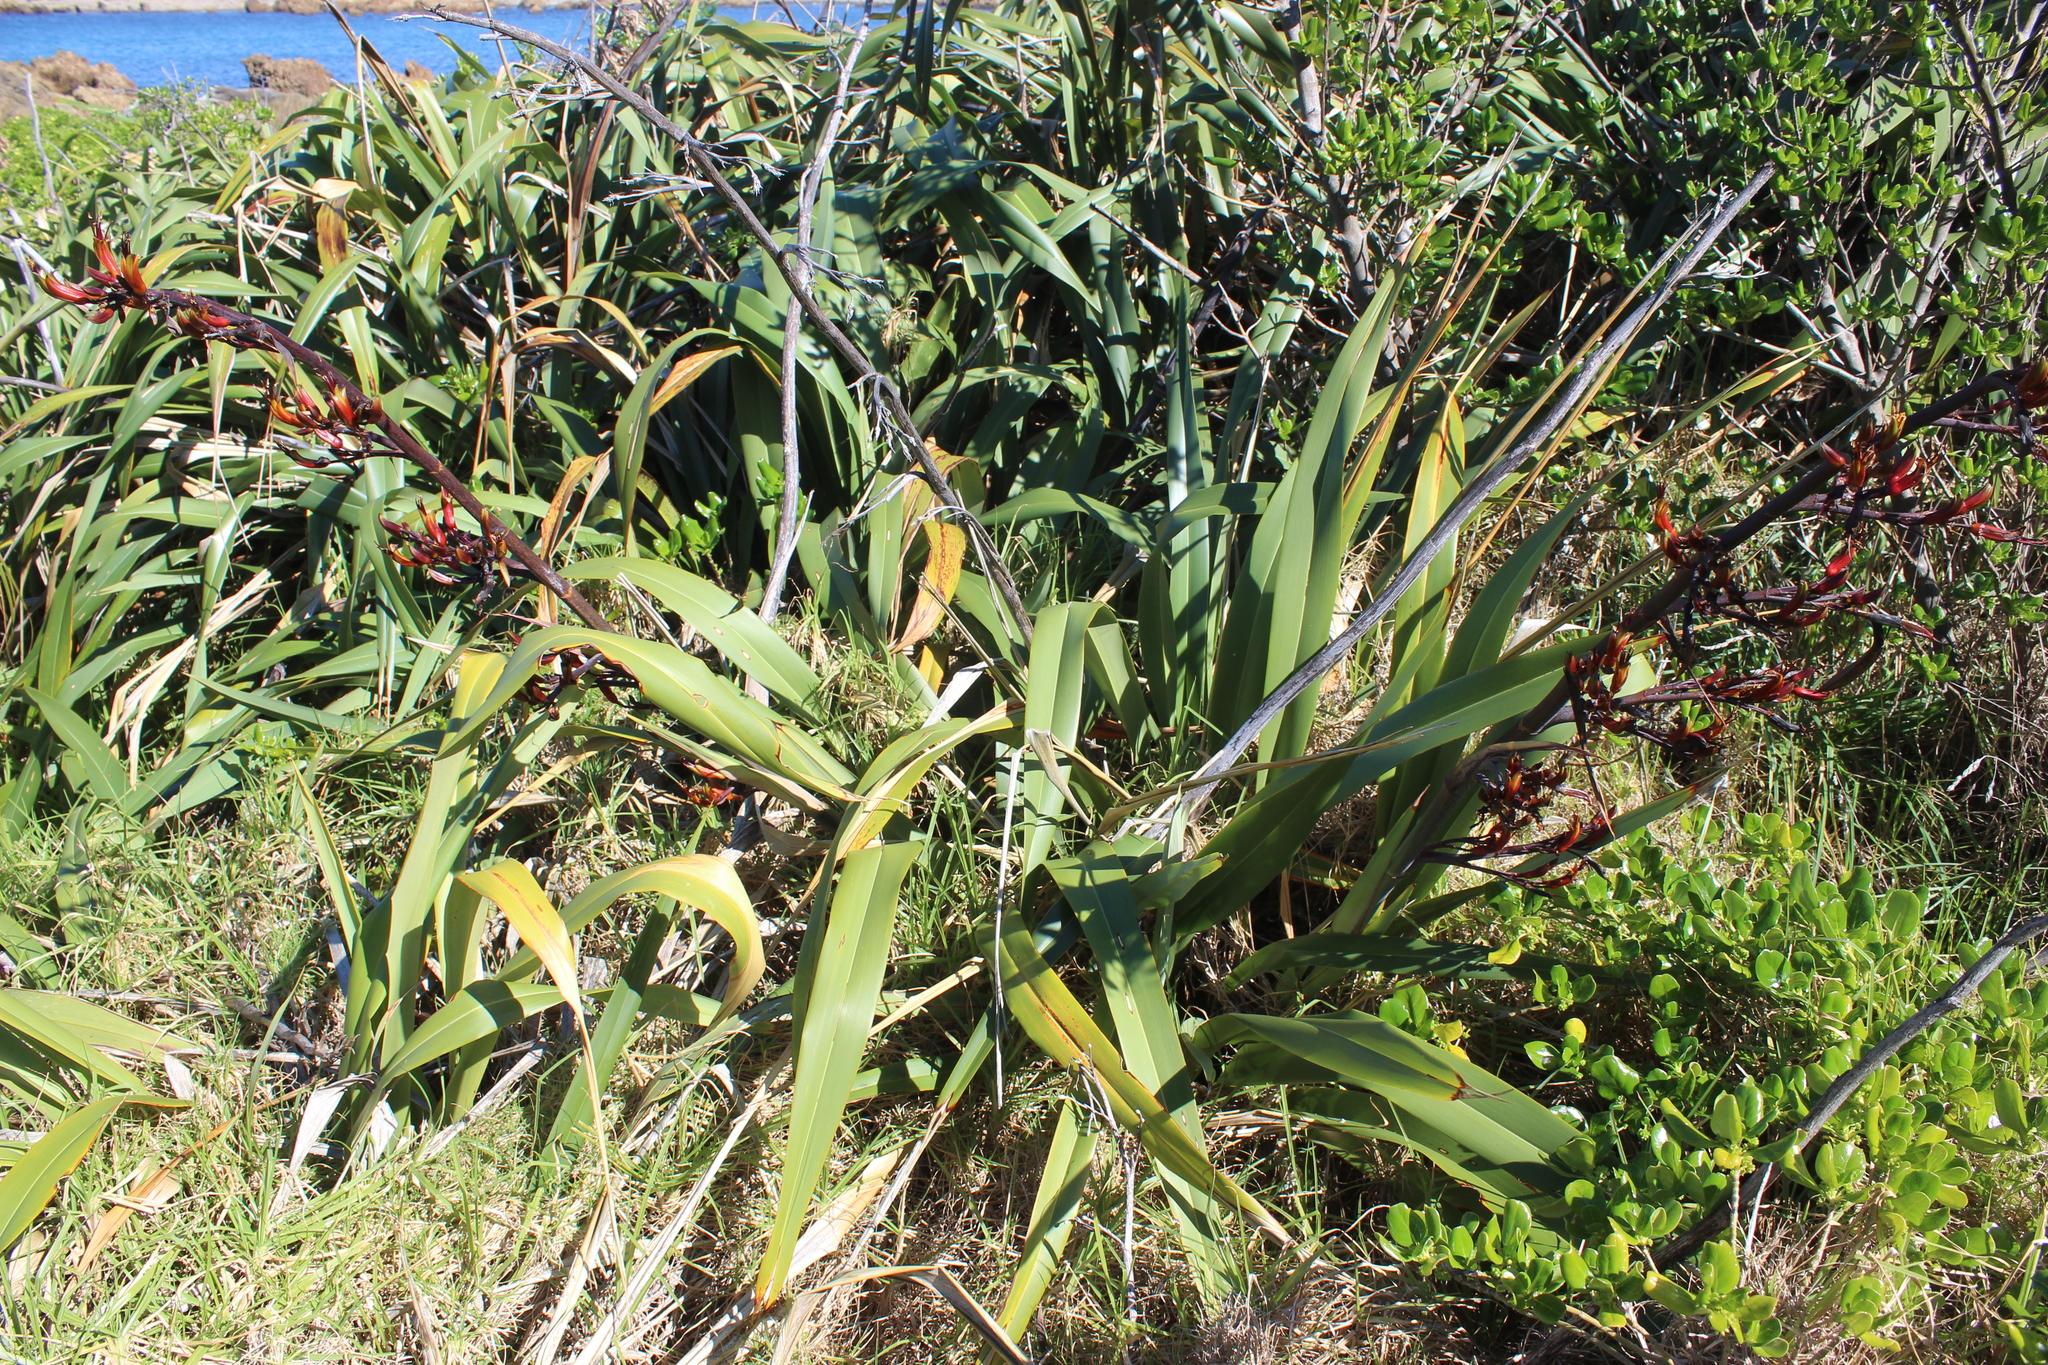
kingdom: Plantae
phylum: Tracheophyta
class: Liliopsida
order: Asparagales
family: Asphodelaceae
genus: Phormium
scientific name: Phormium colensoi
